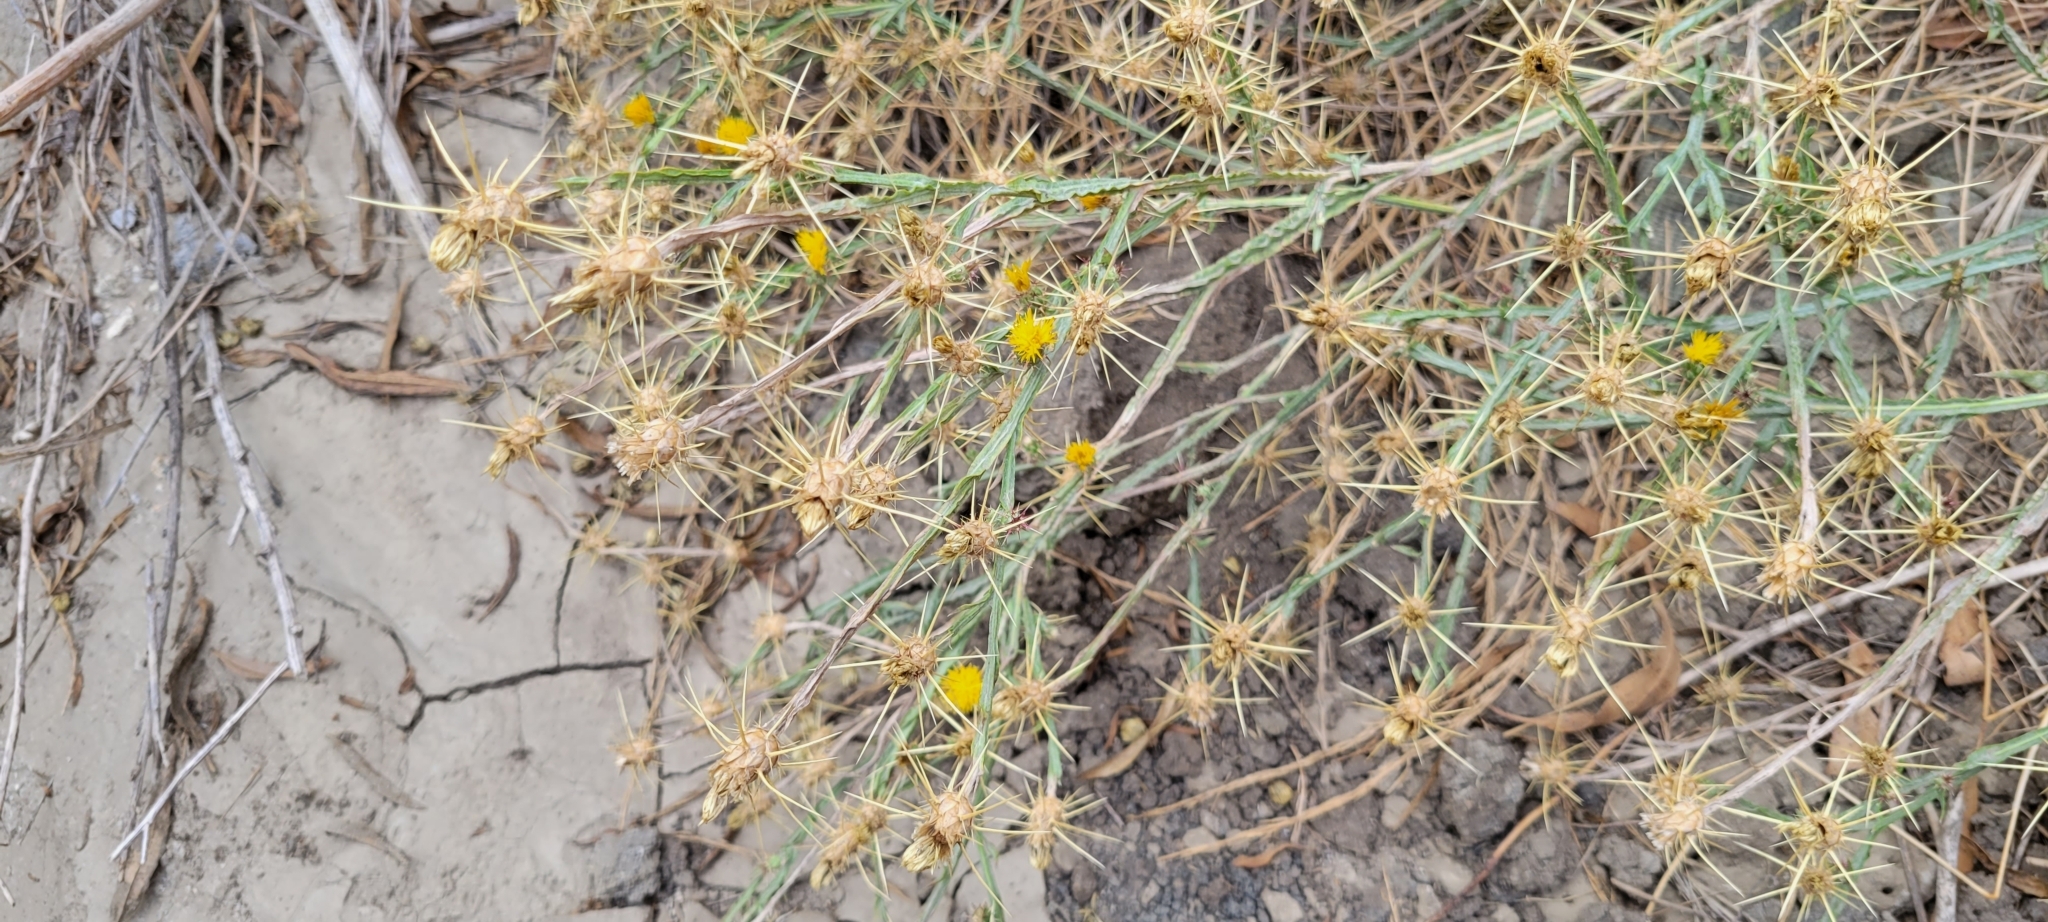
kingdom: Plantae
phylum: Tracheophyta
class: Magnoliopsida
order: Asterales
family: Asteraceae
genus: Centaurea
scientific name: Centaurea solstitialis
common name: Yellow star-thistle
